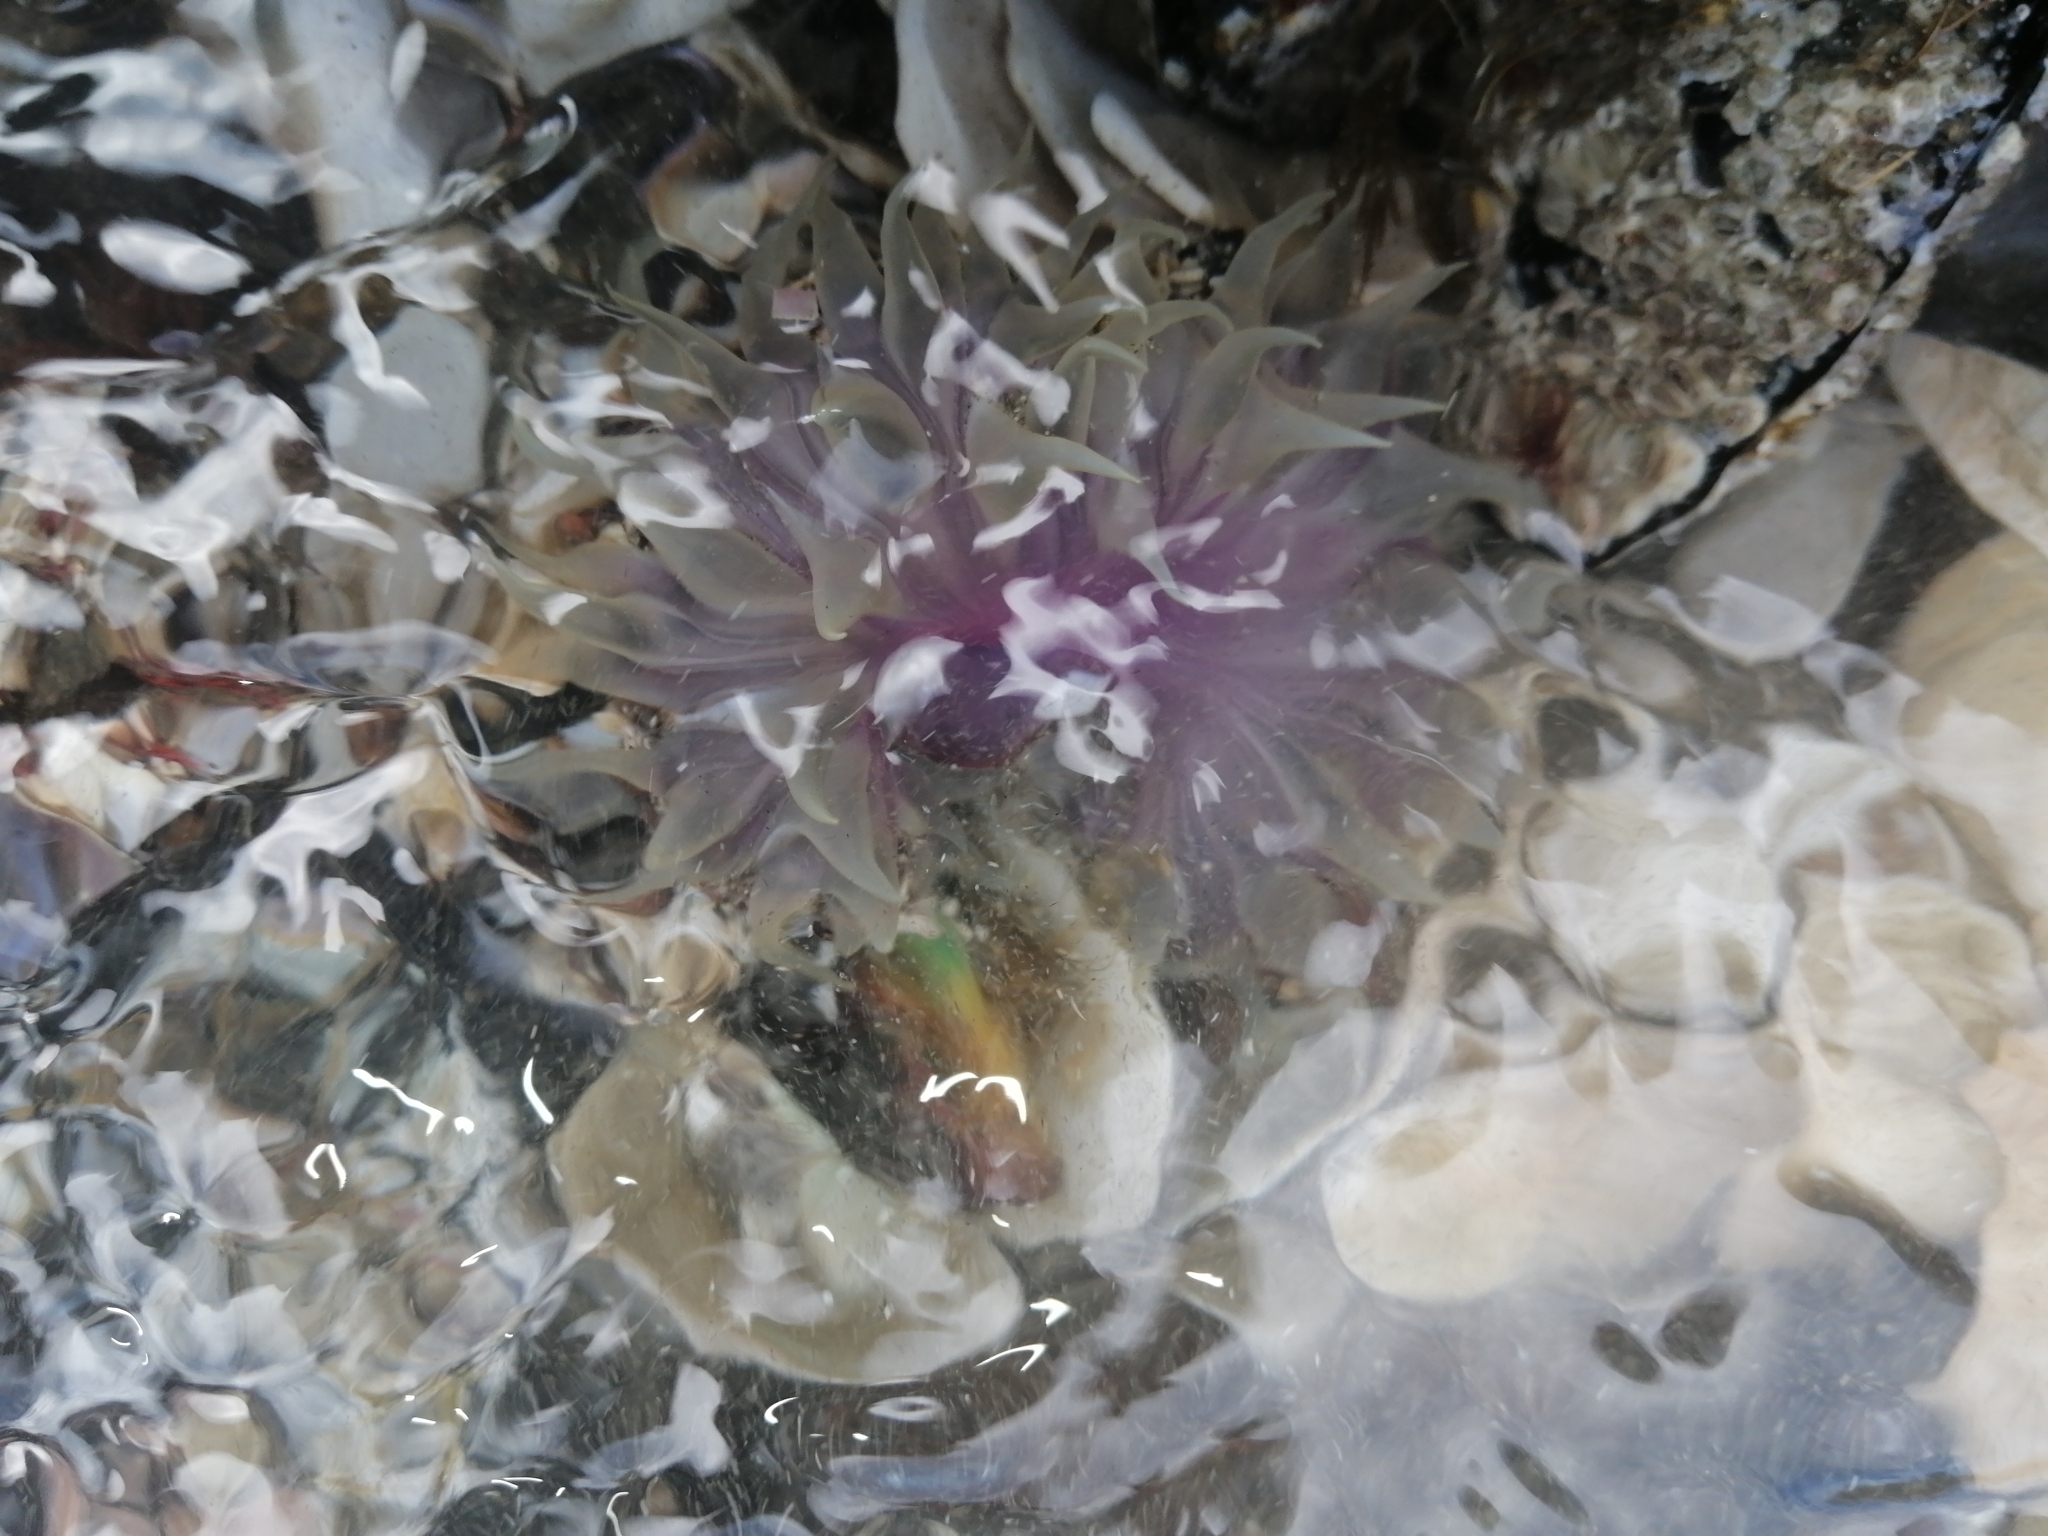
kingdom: Animalia
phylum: Cnidaria
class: Anthozoa
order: Actiniaria
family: Actiniidae
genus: Oulactis
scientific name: Oulactis magna
